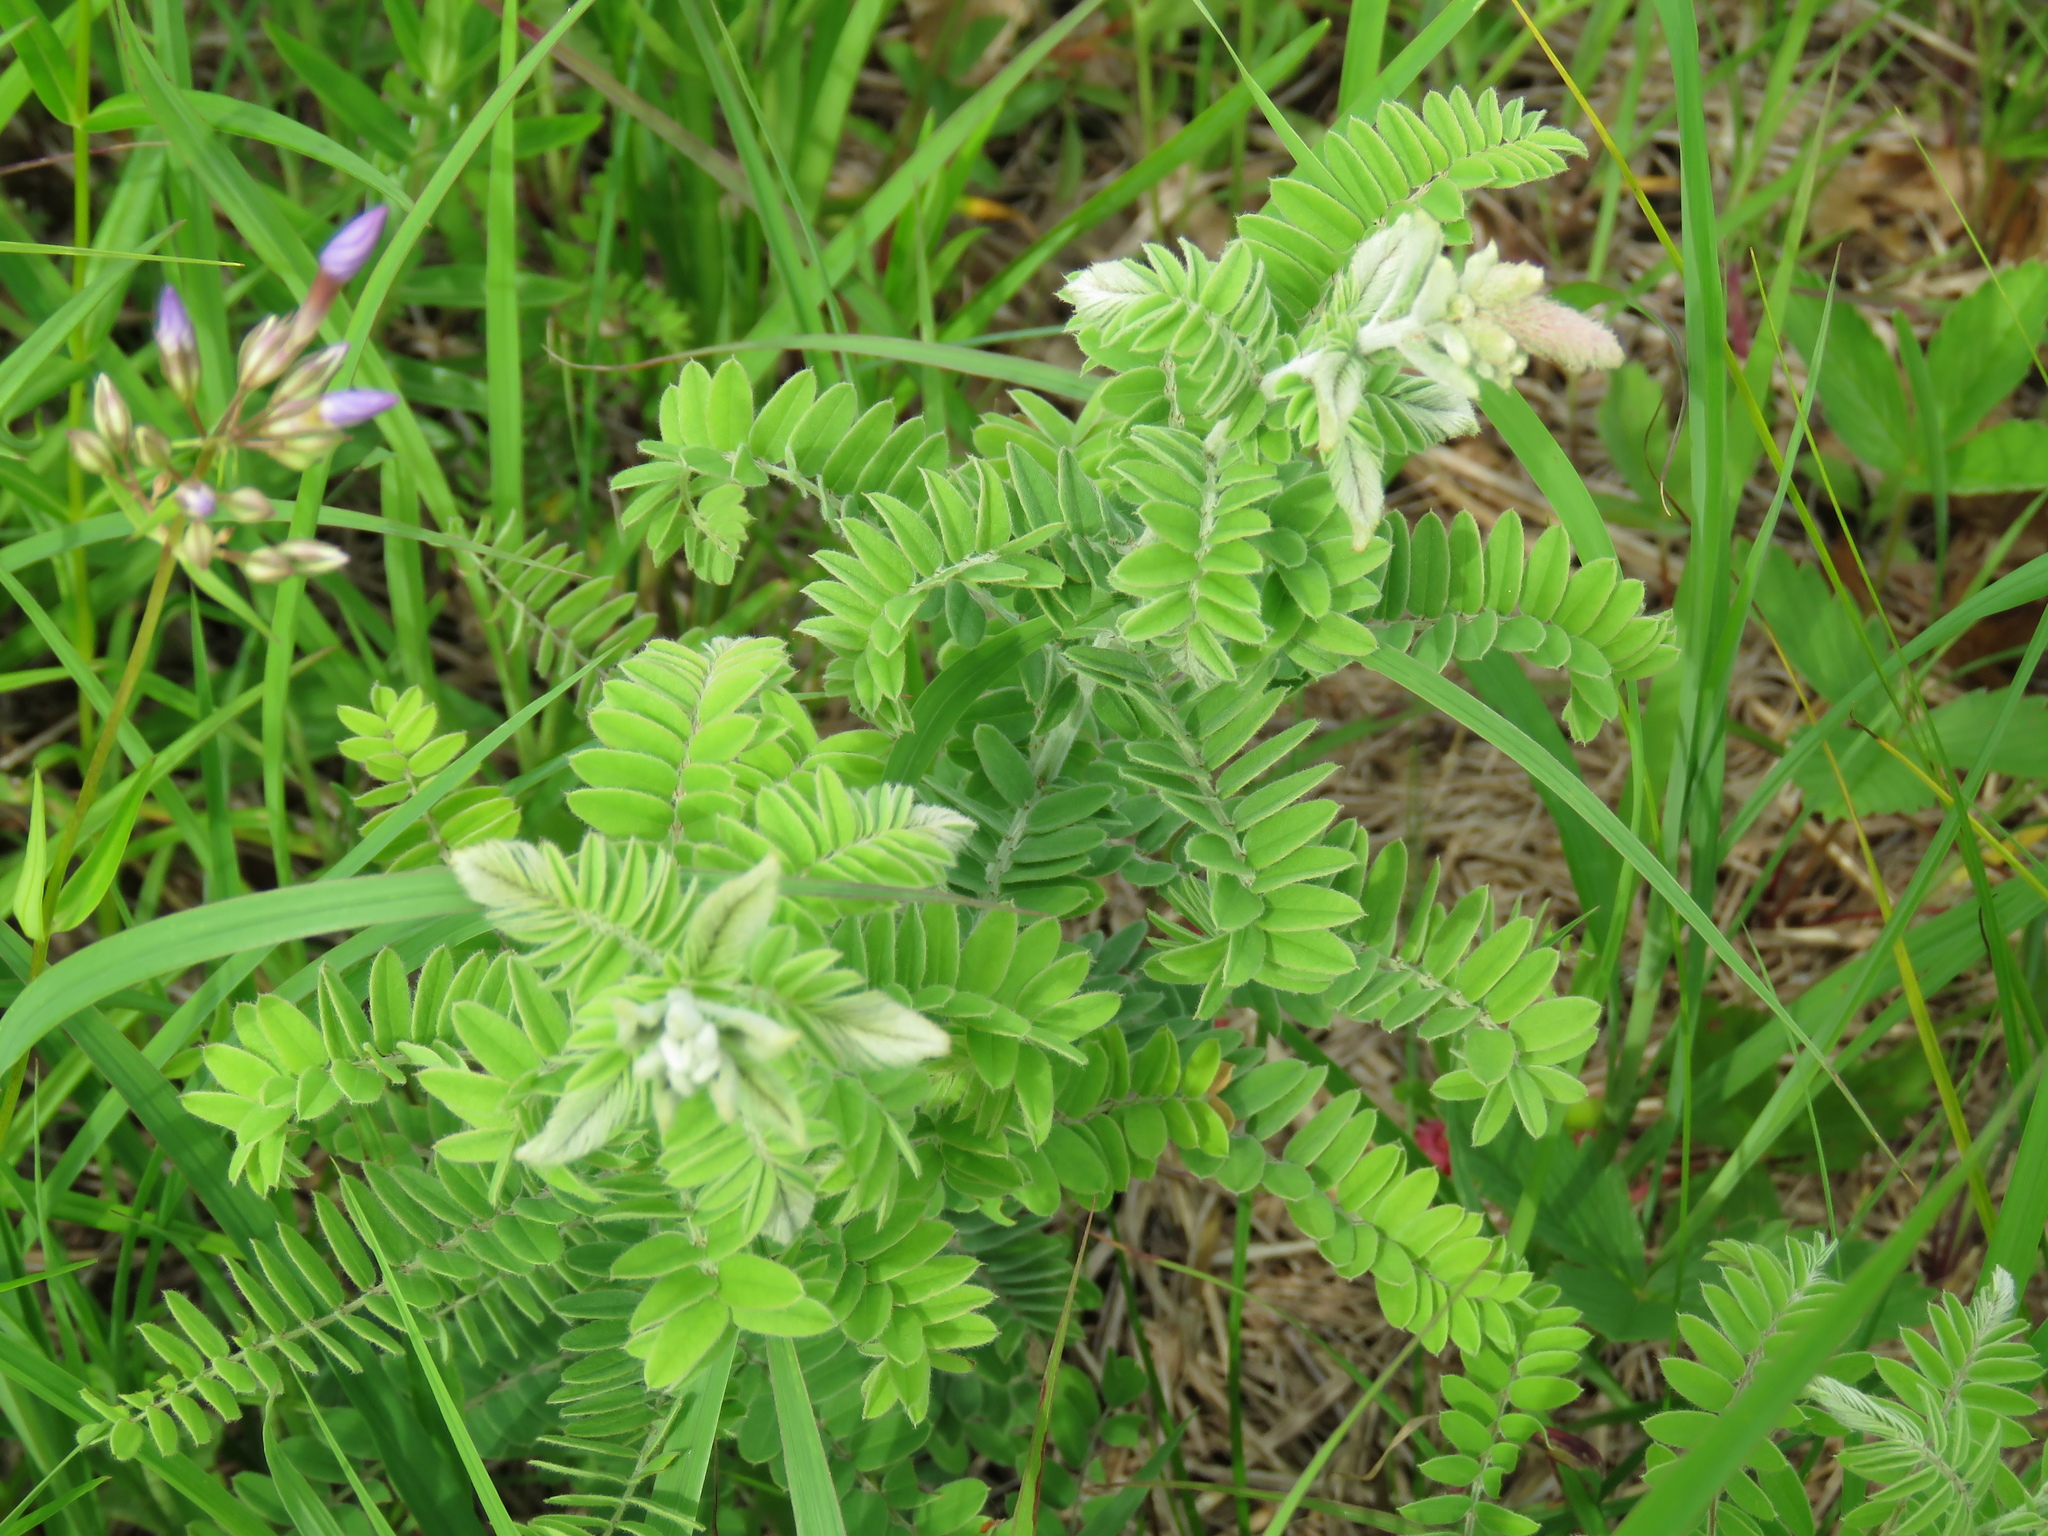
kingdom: Plantae
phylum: Tracheophyta
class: Magnoliopsida
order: Fabales
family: Fabaceae
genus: Amorpha
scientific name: Amorpha canescens
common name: Leadplant
